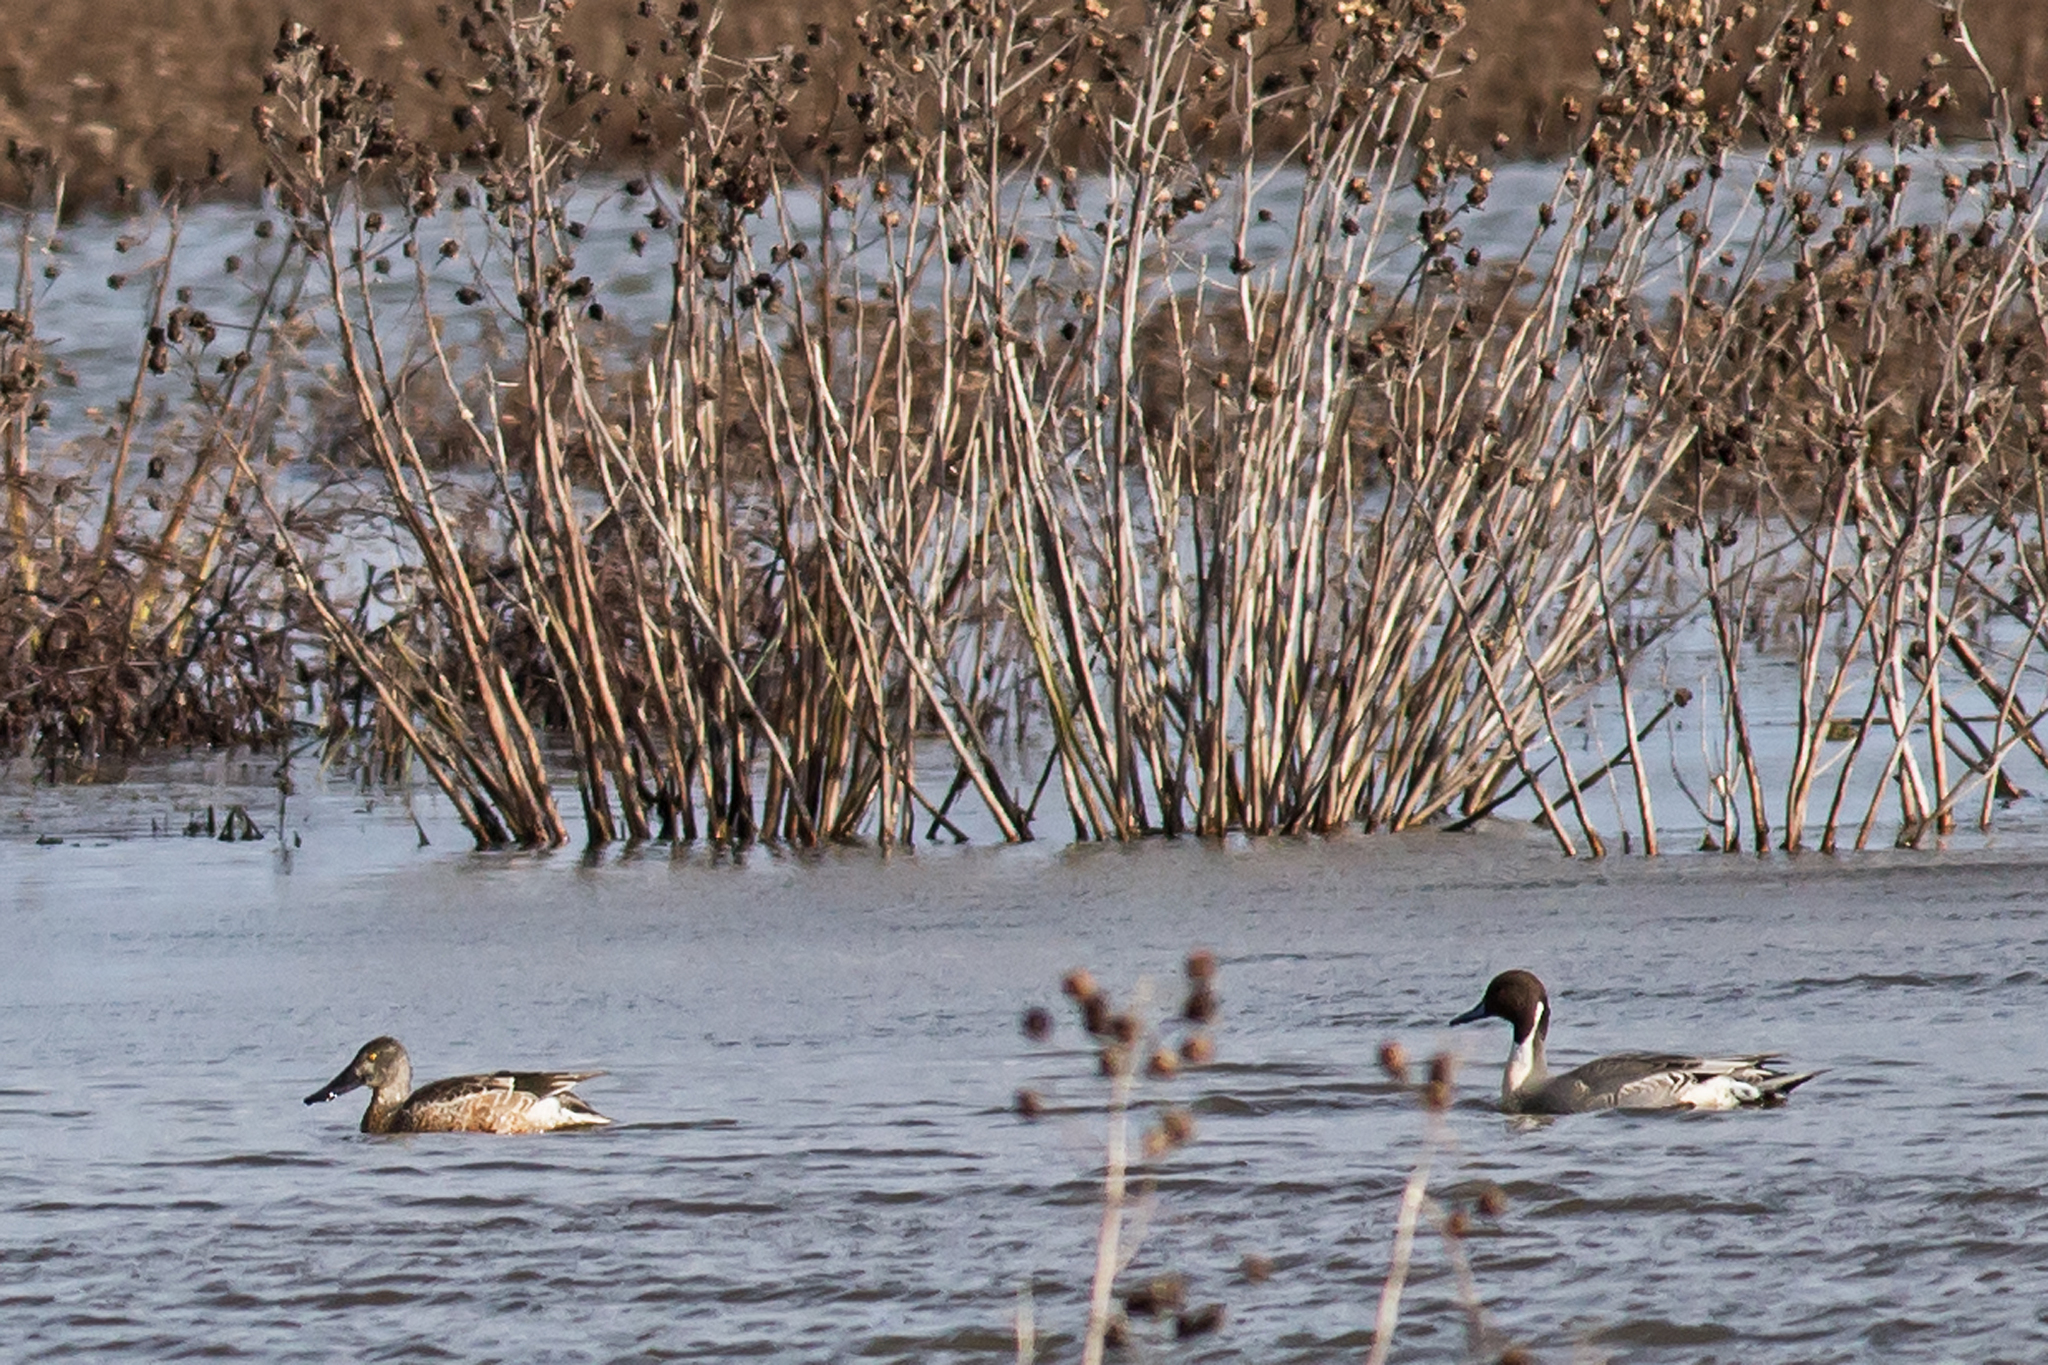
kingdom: Animalia
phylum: Chordata
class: Aves
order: Anseriformes
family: Anatidae
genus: Spatula
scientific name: Spatula clypeata
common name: Northern shoveler
